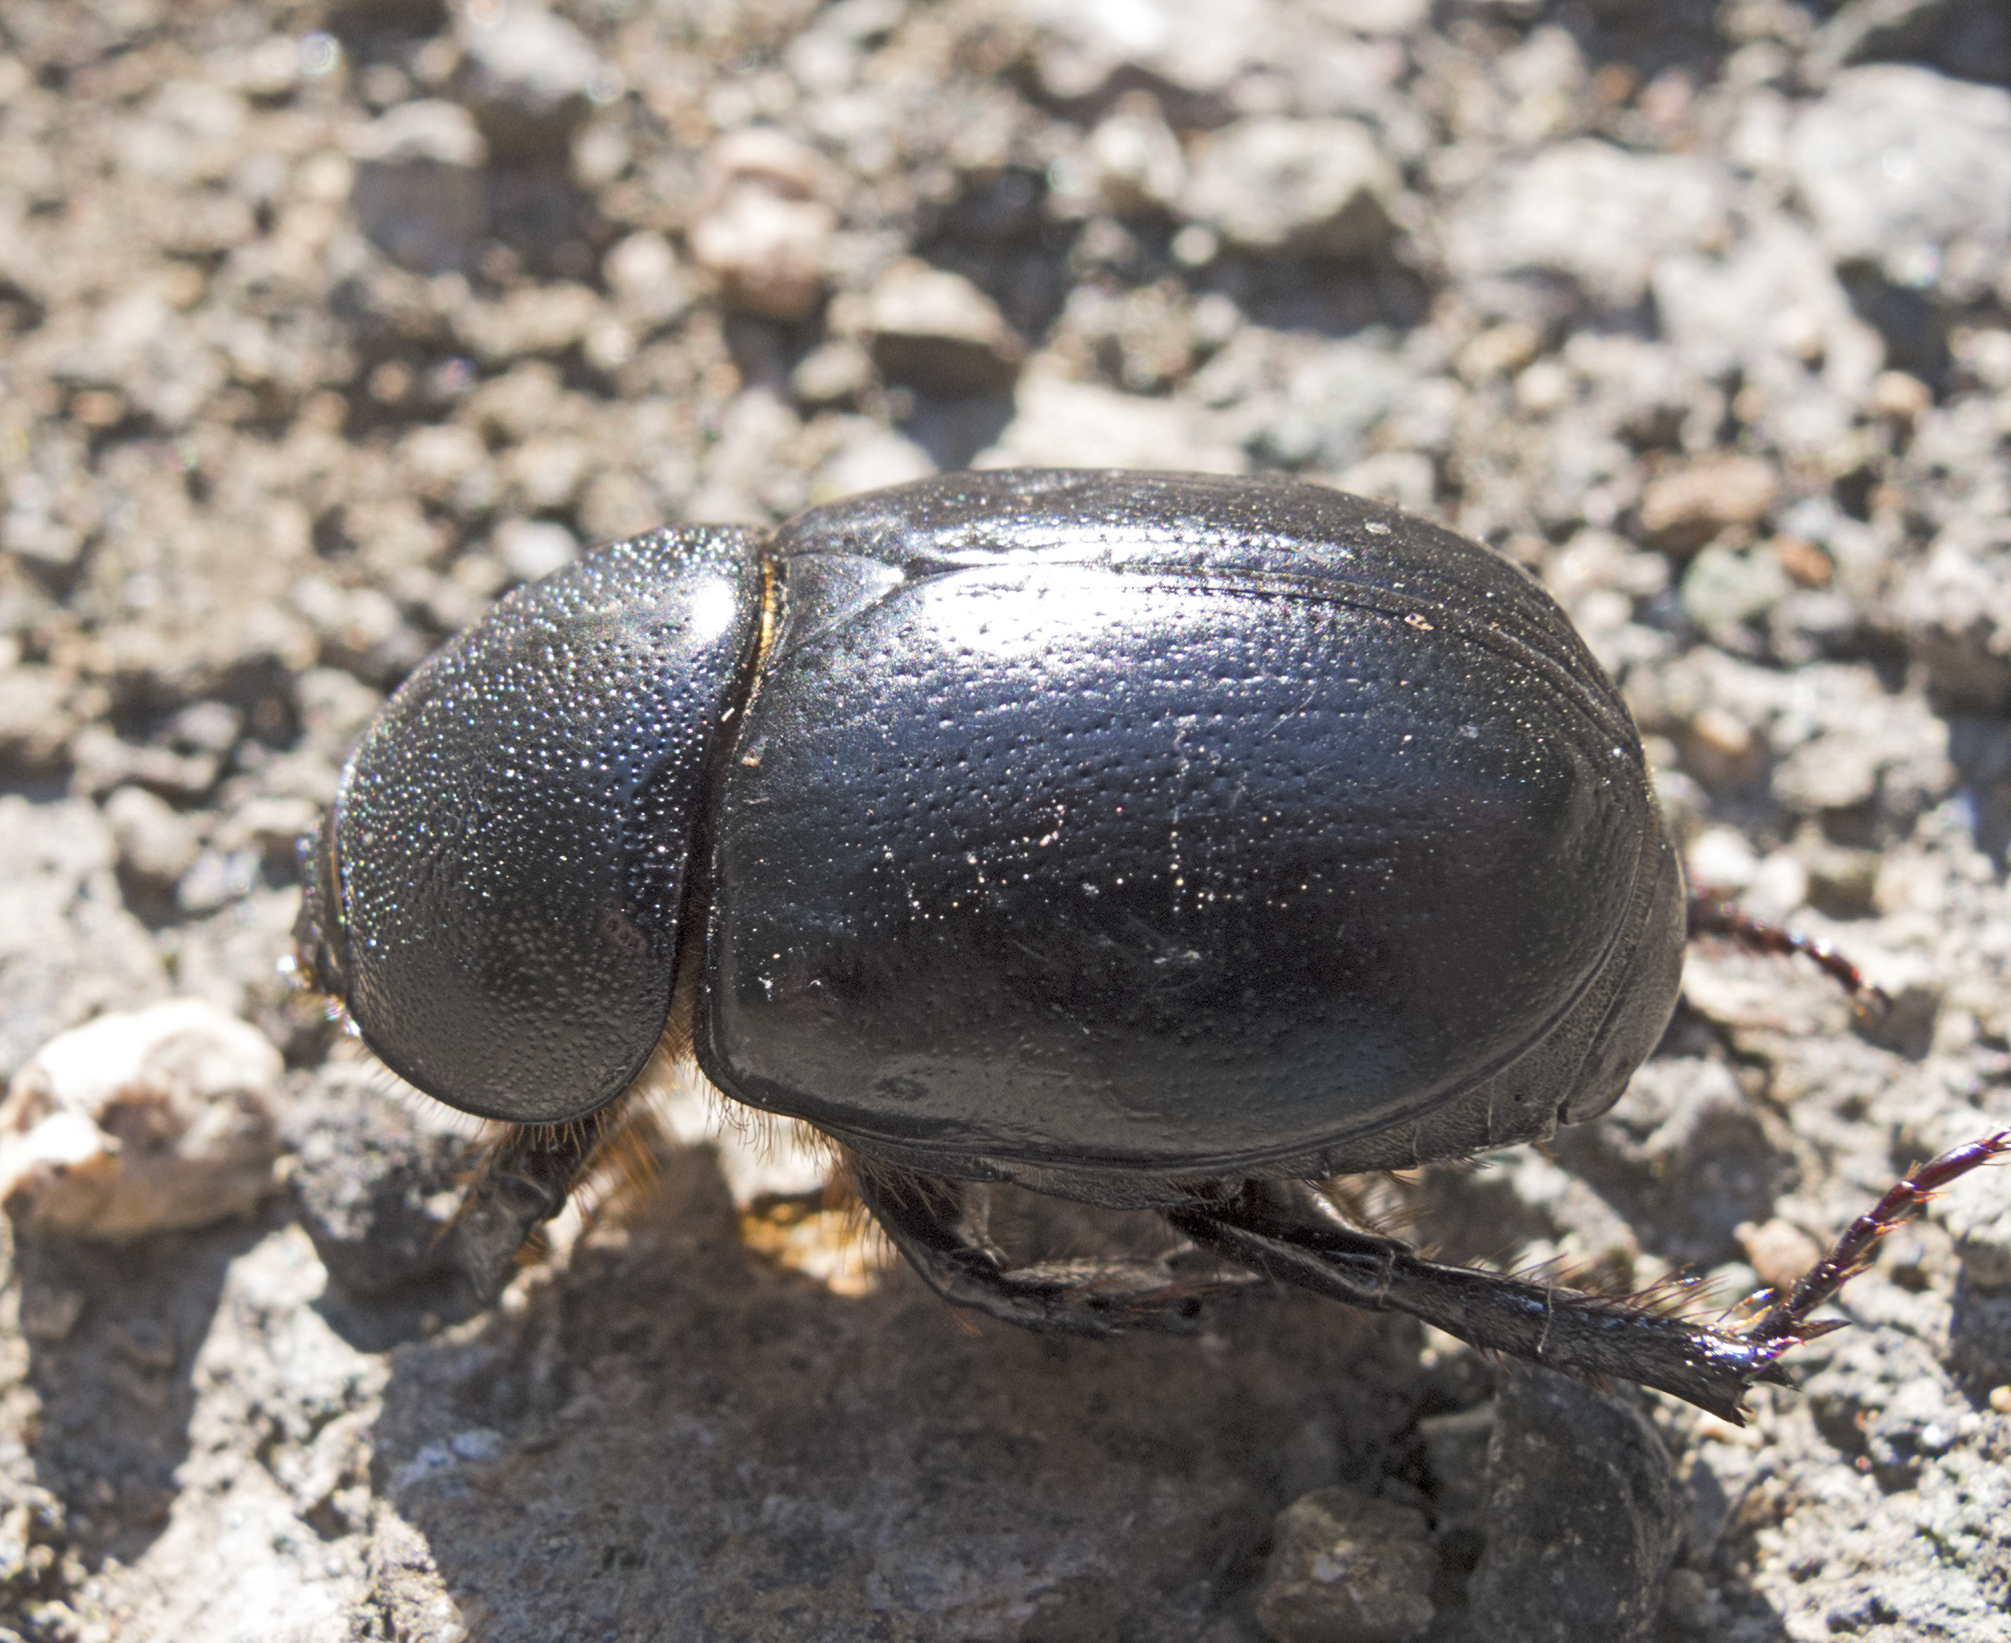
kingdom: Animalia
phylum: Arthropoda
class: Insecta
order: Coleoptera
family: Scarabaeidae
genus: Pentodon
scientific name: Pentodon idiota
